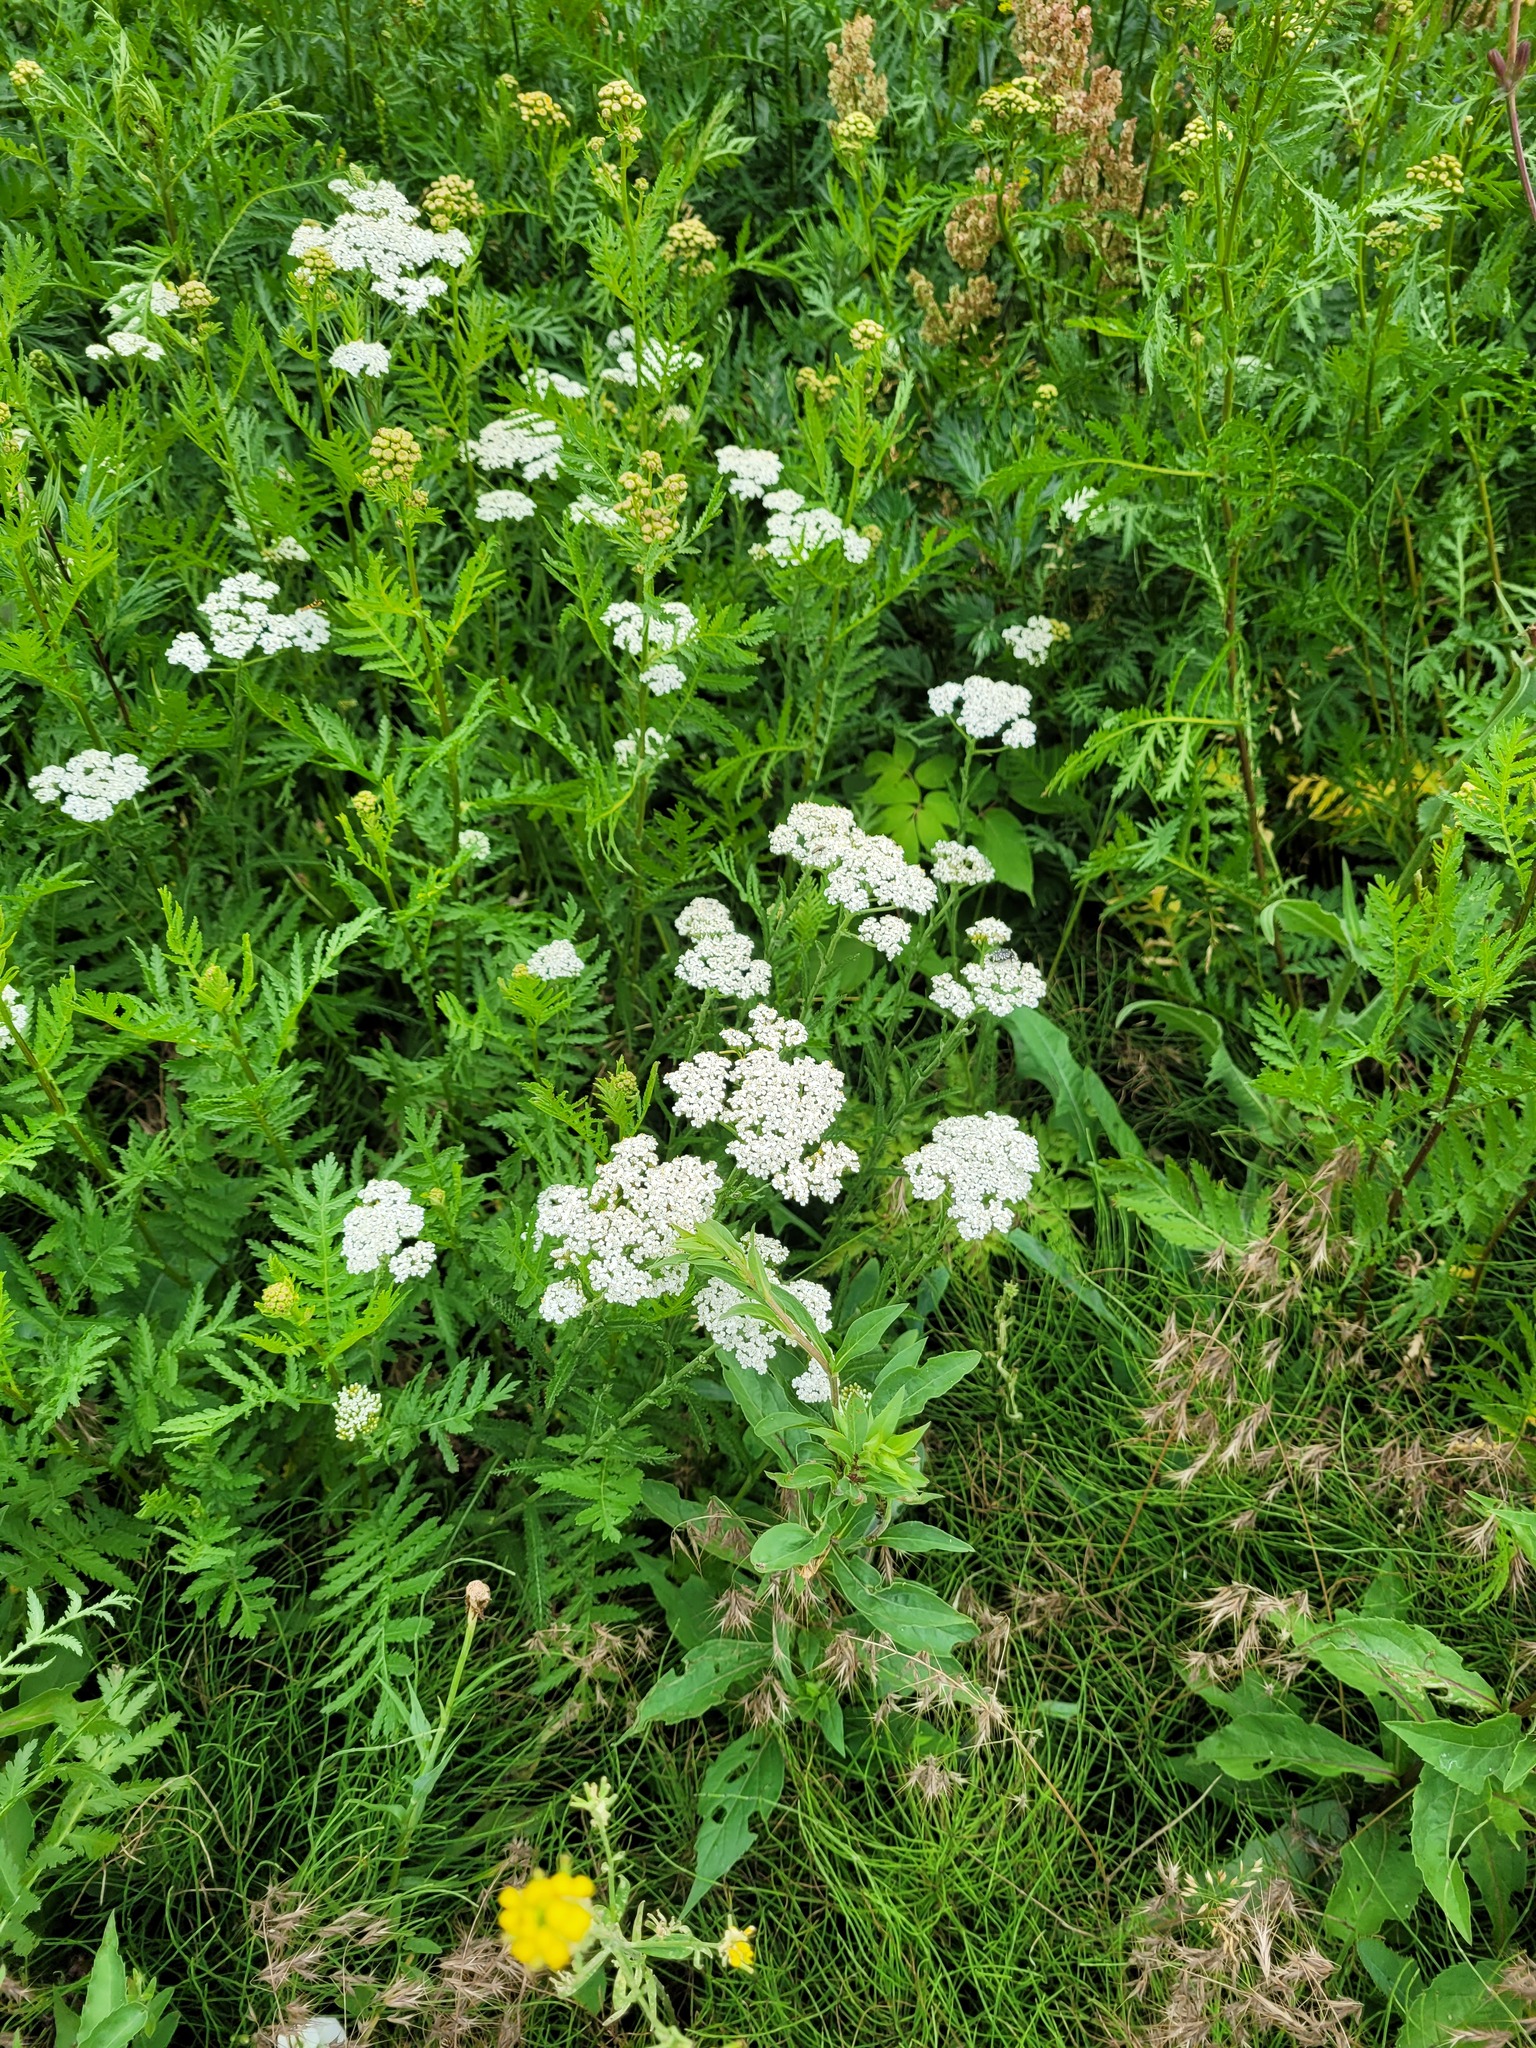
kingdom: Plantae
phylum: Tracheophyta
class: Magnoliopsida
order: Asterales
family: Asteraceae
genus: Achillea
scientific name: Achillea millefolium
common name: Yarrow
